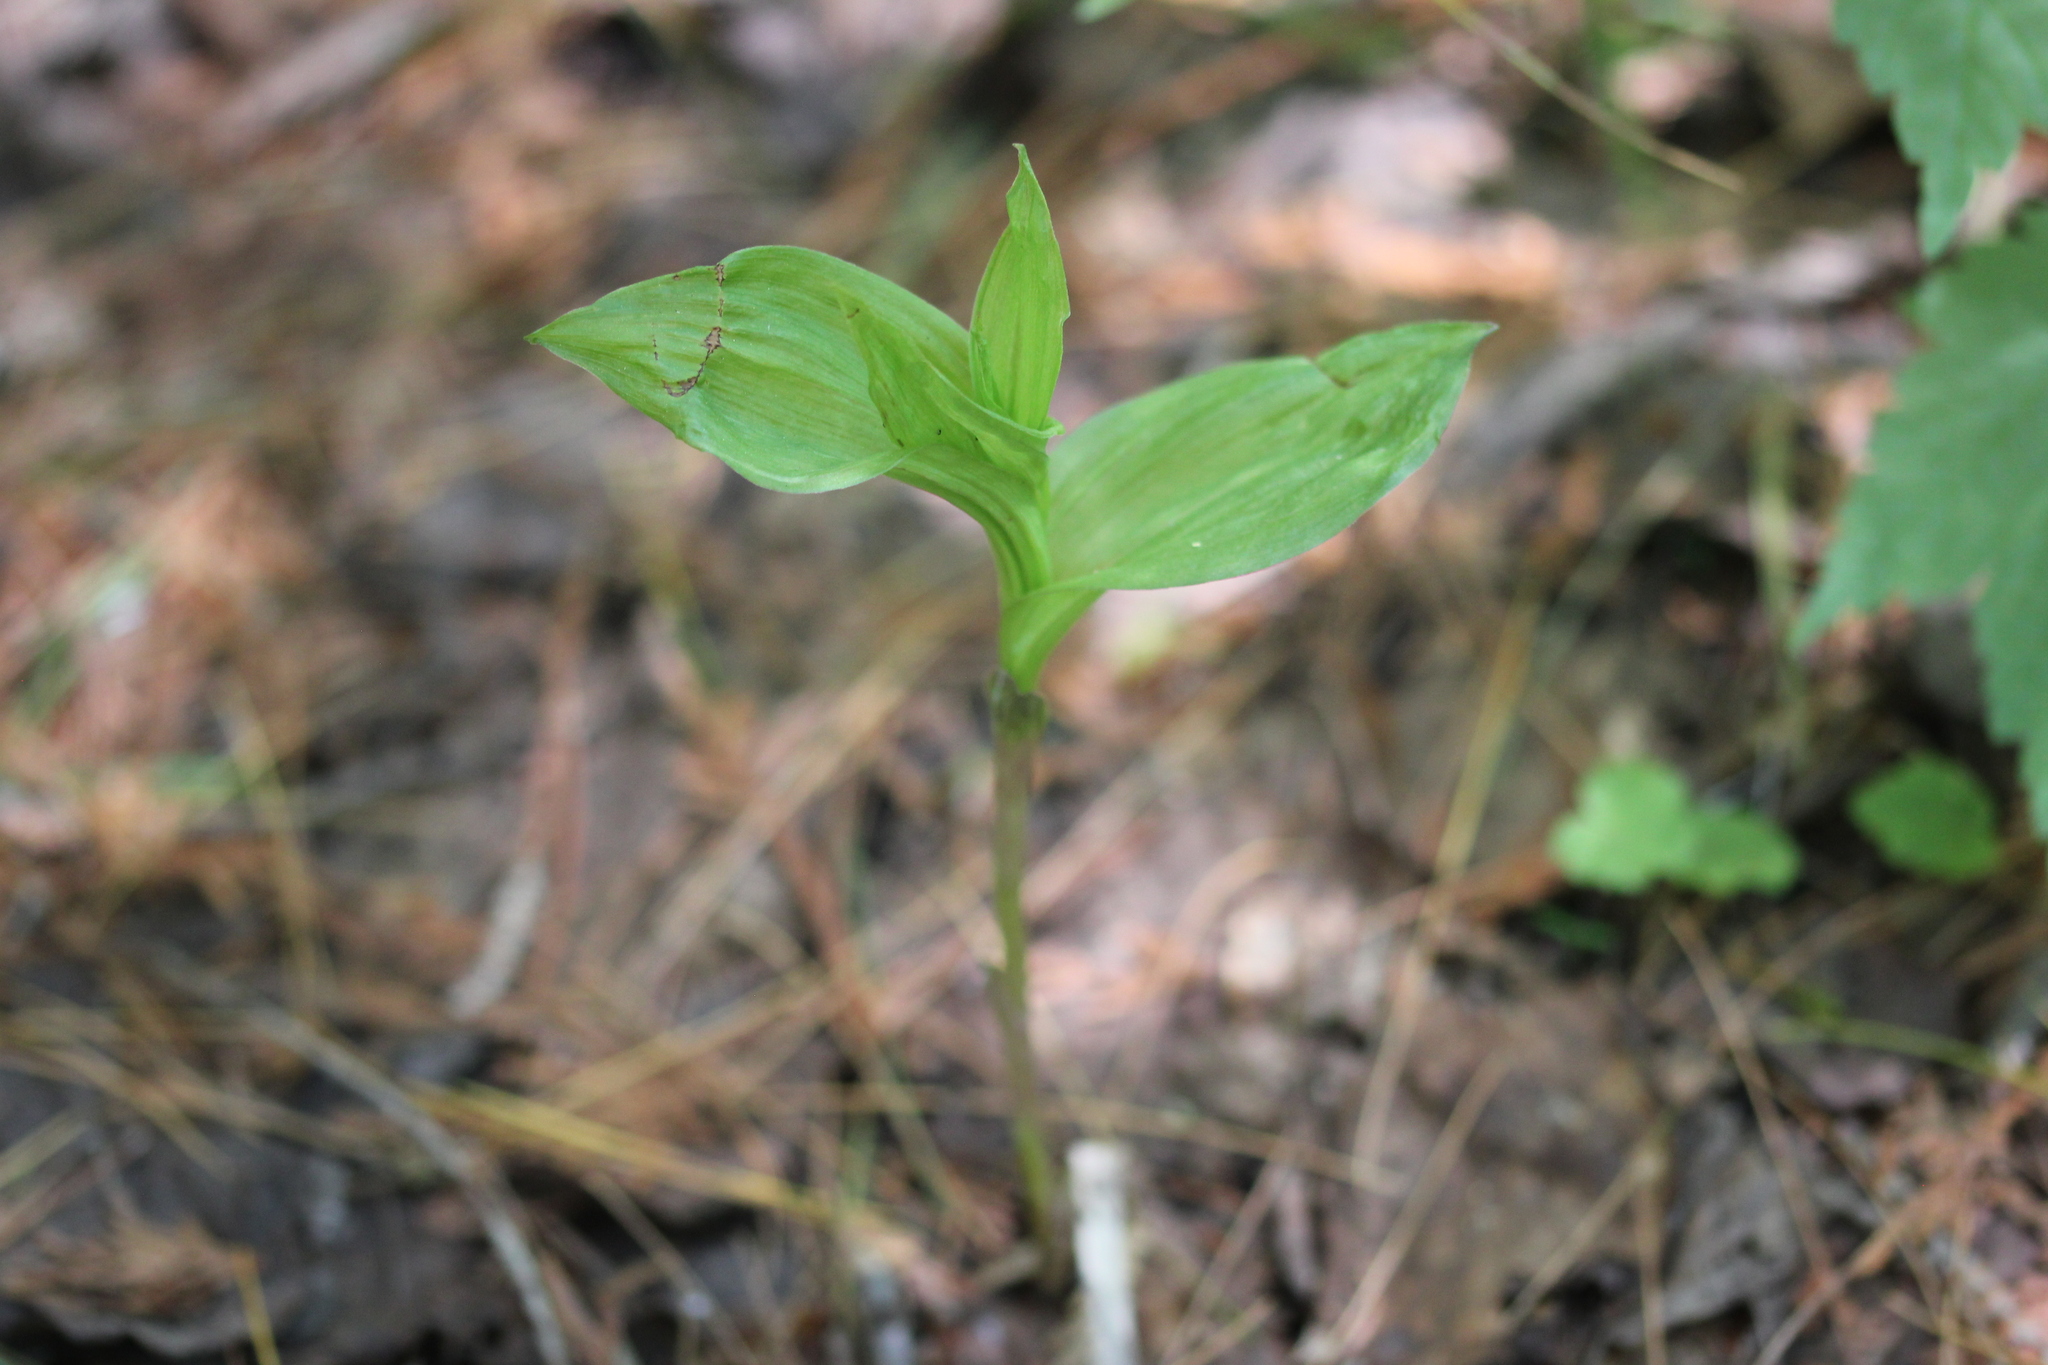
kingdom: Plantae
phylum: Tracheophyta
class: Liliopsida
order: Asparagales
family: Orchidaceae
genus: Epipactis
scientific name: Epipactis helleborine
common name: Broad-leaved helleborine
